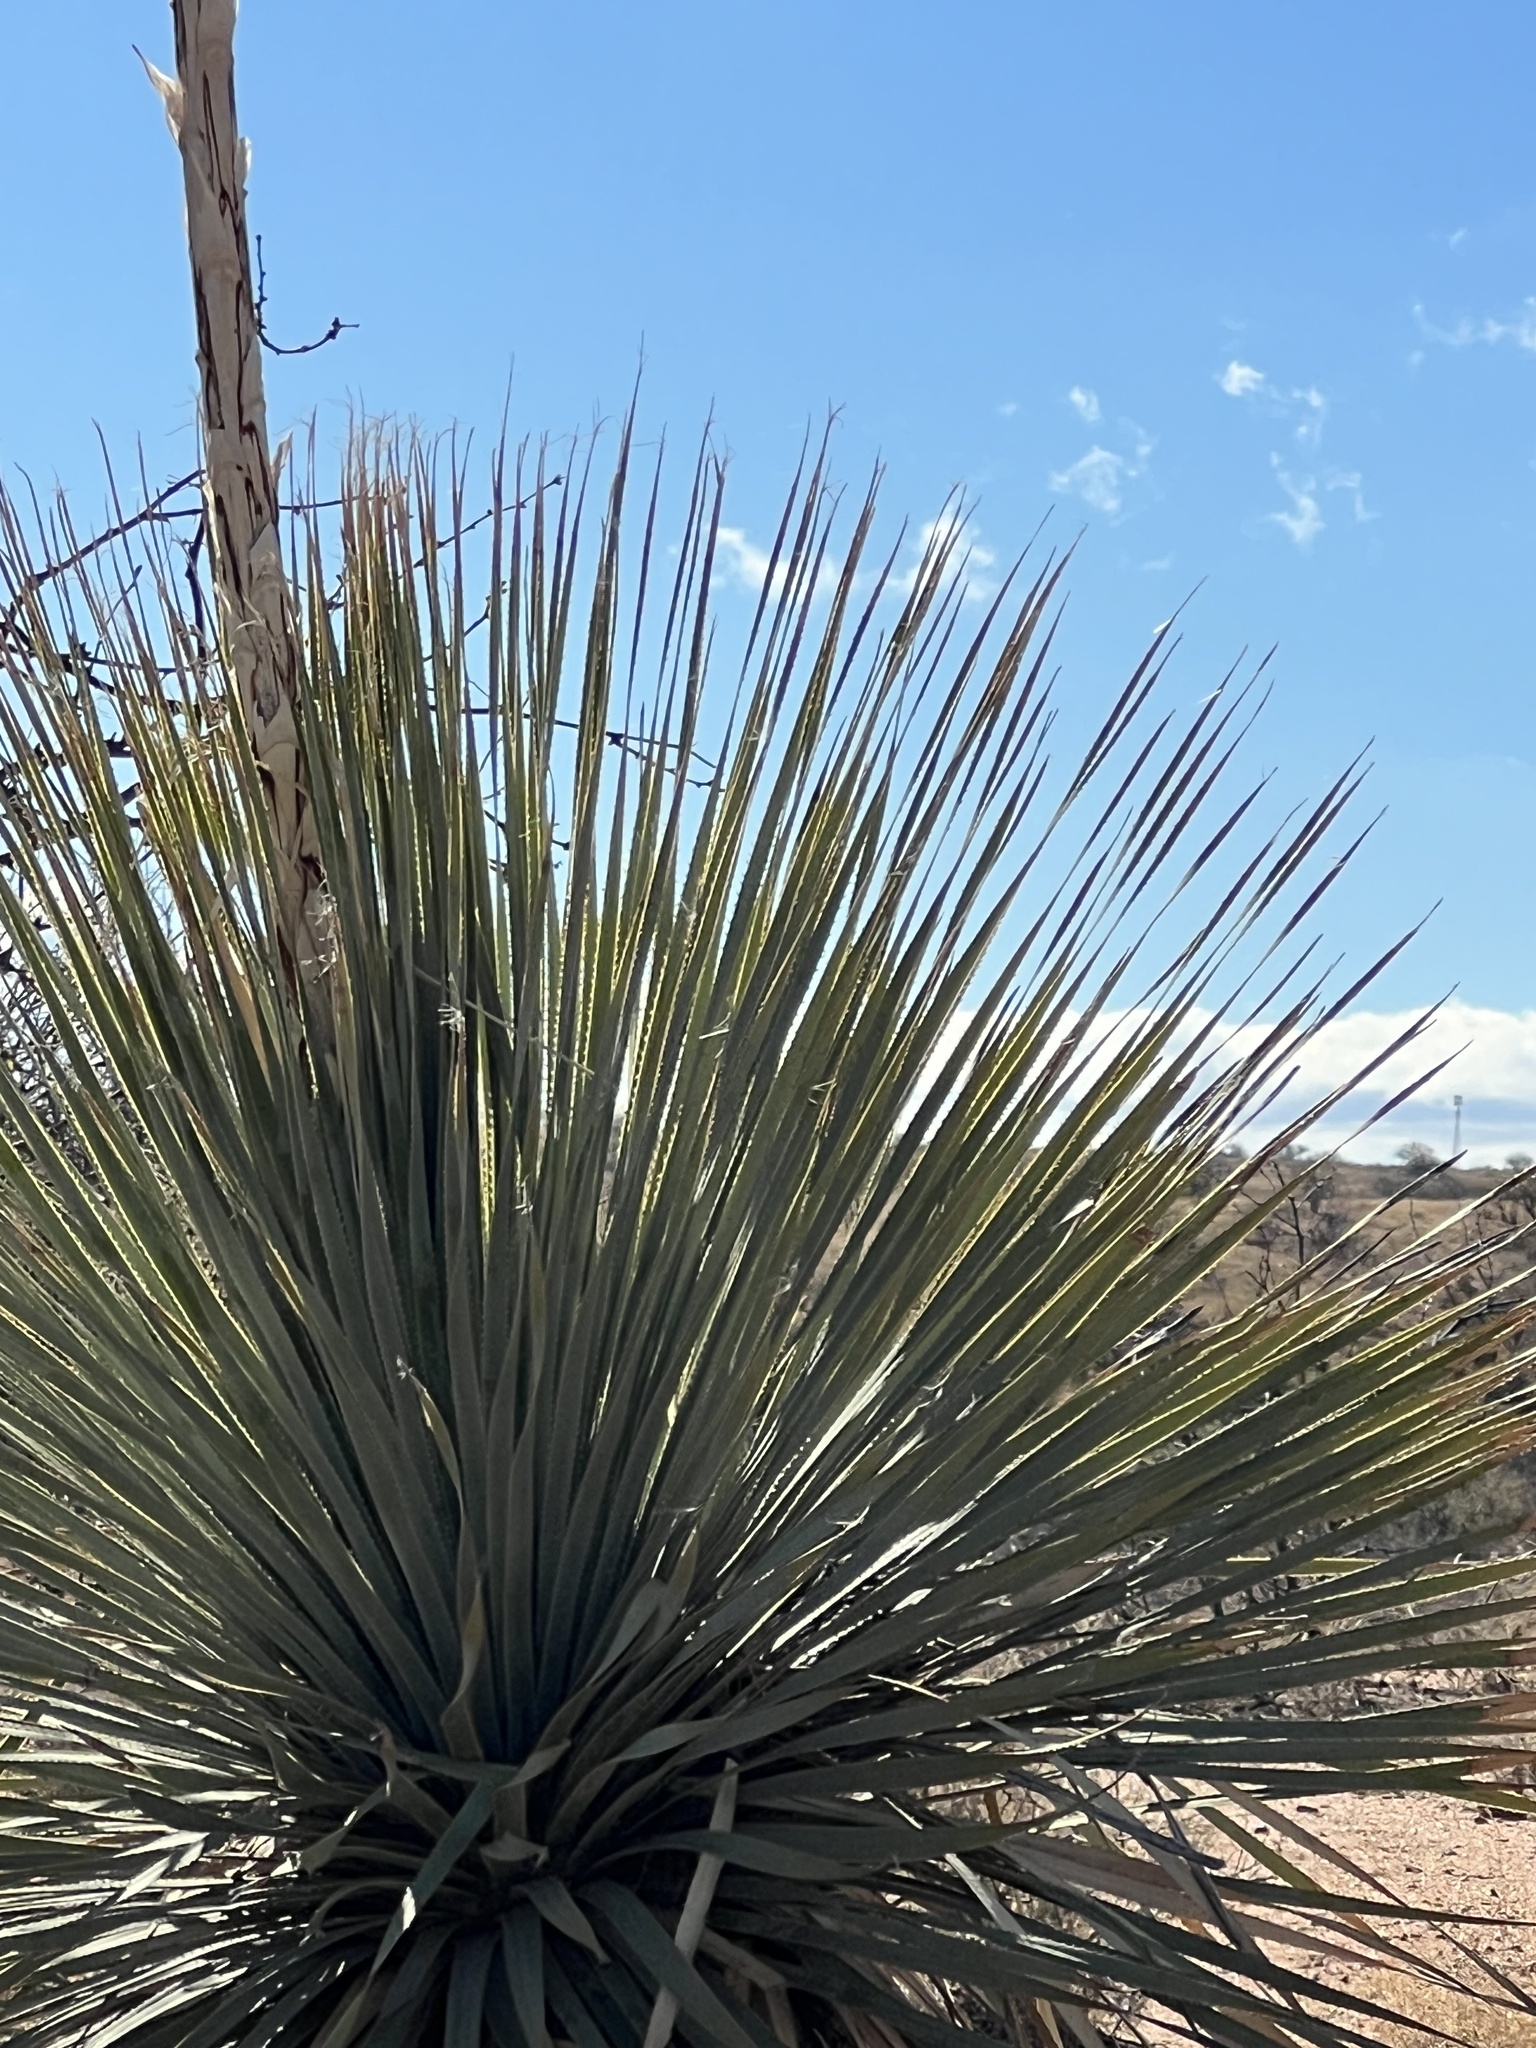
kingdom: Plantae
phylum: Tracheophyta
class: Liliopsida
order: Asparagales
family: Asparagaceae
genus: Dasylirion
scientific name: Dasylirion wheeleri
